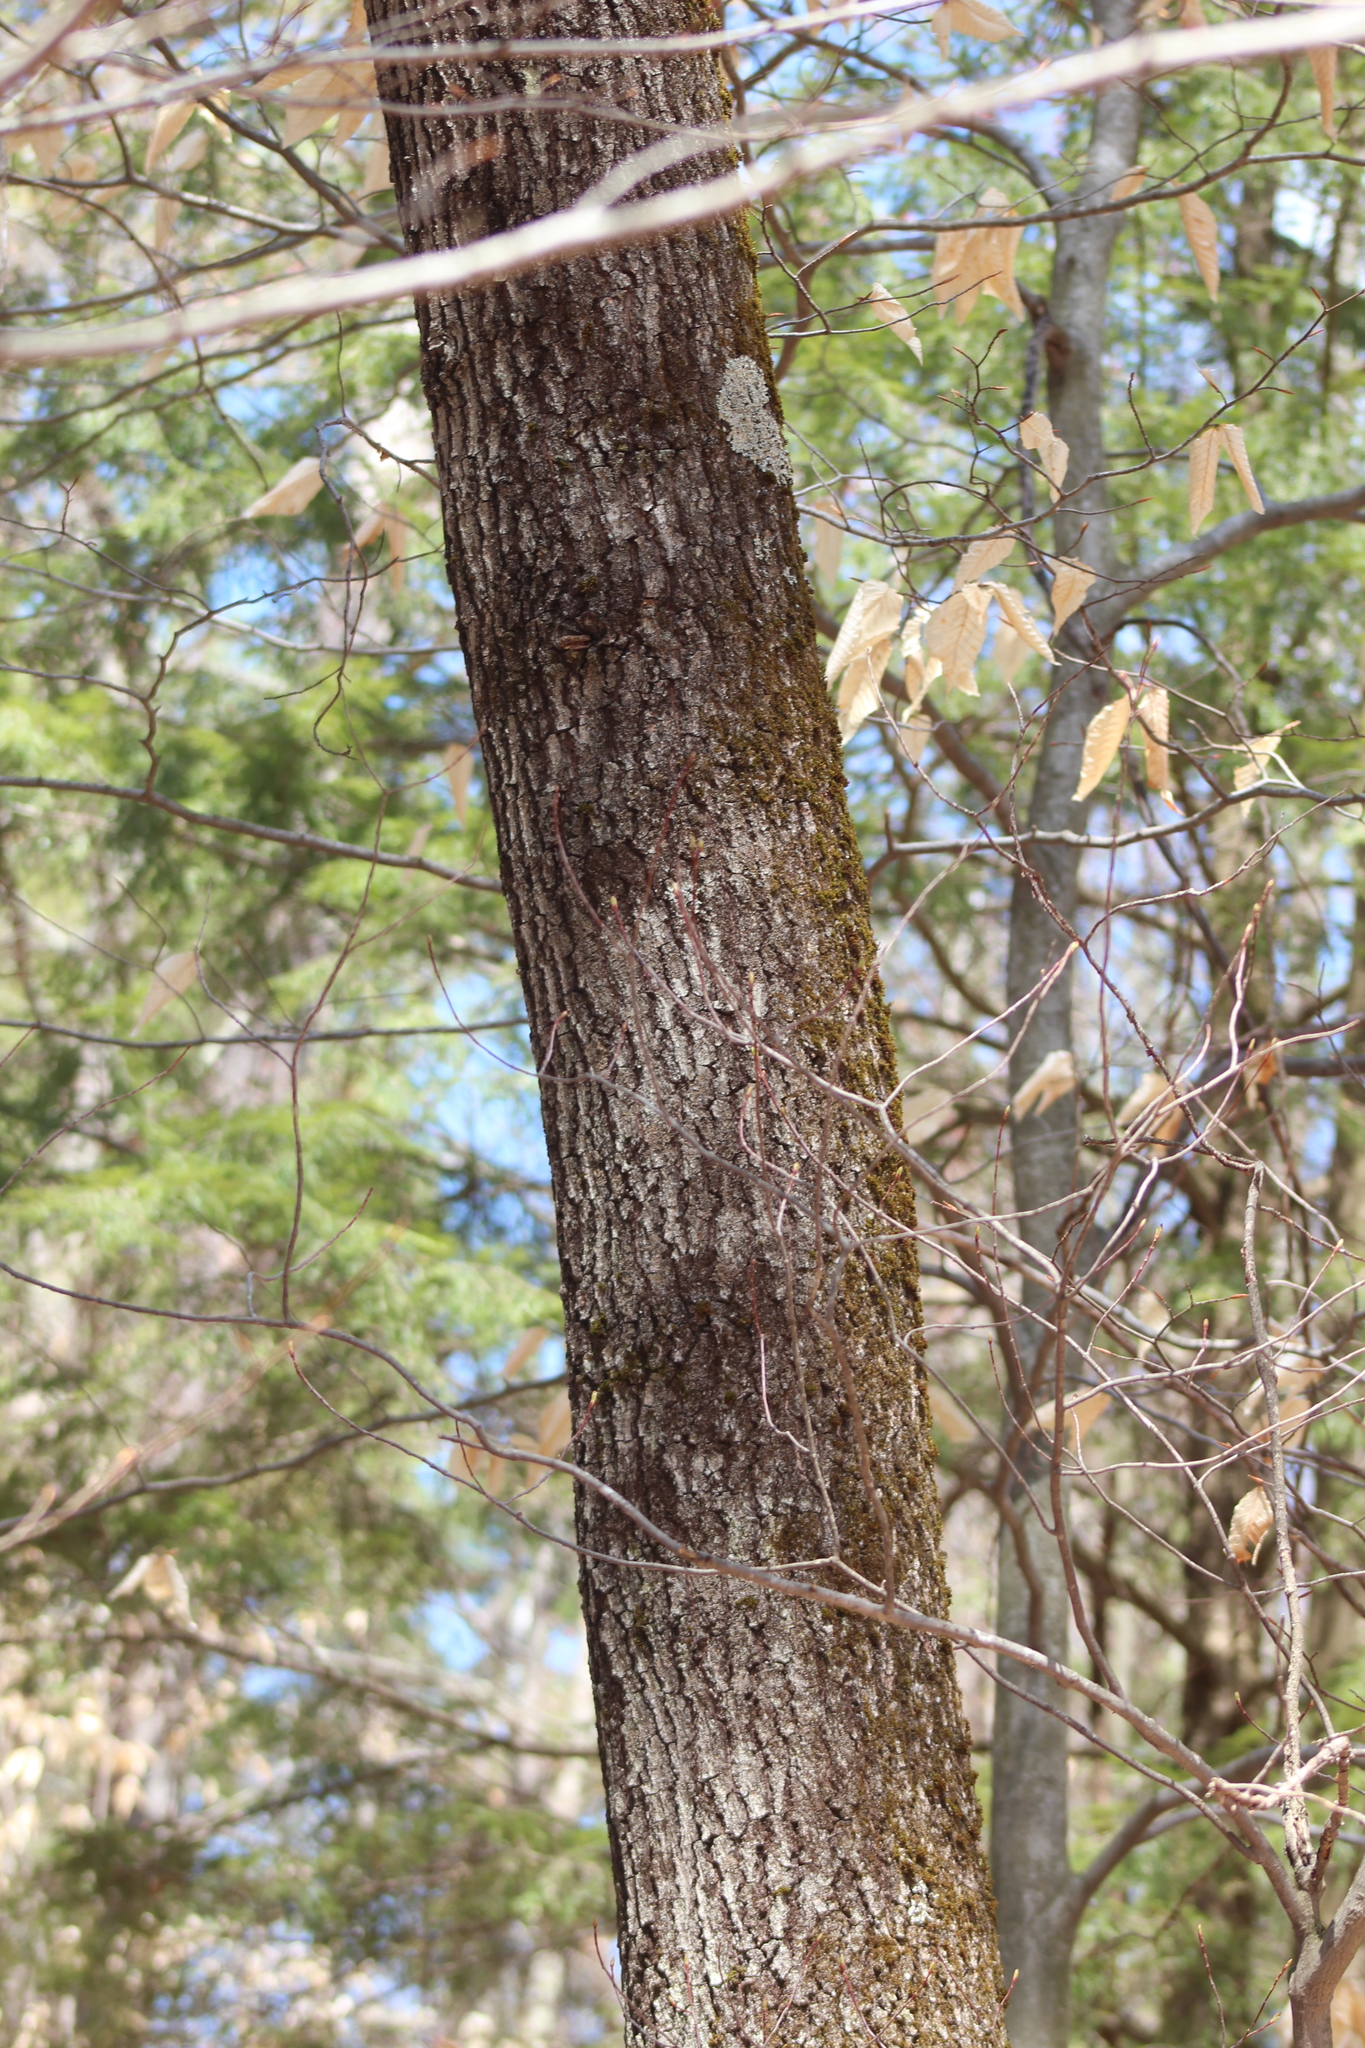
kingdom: Plantae
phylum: Tracheophyta
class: Magnoliopsida
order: Fagales
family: Fagaceae
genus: Quercus
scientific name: Quercus velutina
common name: Black oak
